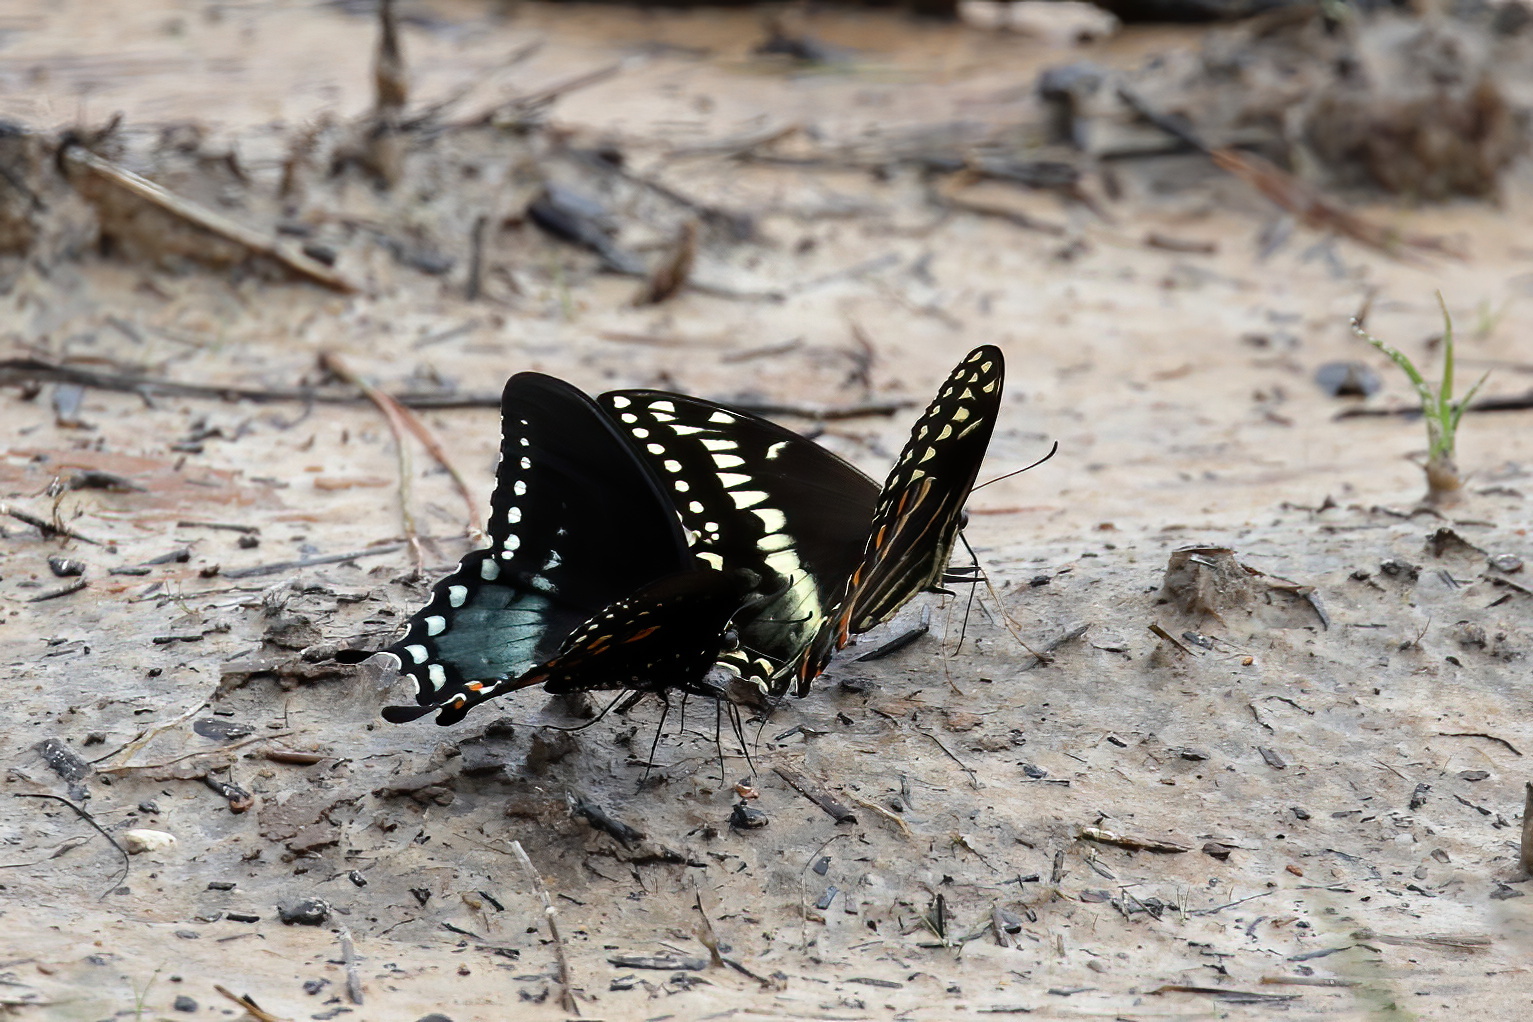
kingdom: Animalia
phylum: Arthropoda
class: Insecta
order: Lepidoptera
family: Papilionidae
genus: Papilio
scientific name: Papilio palamedes
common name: Palamedes swallowtail
